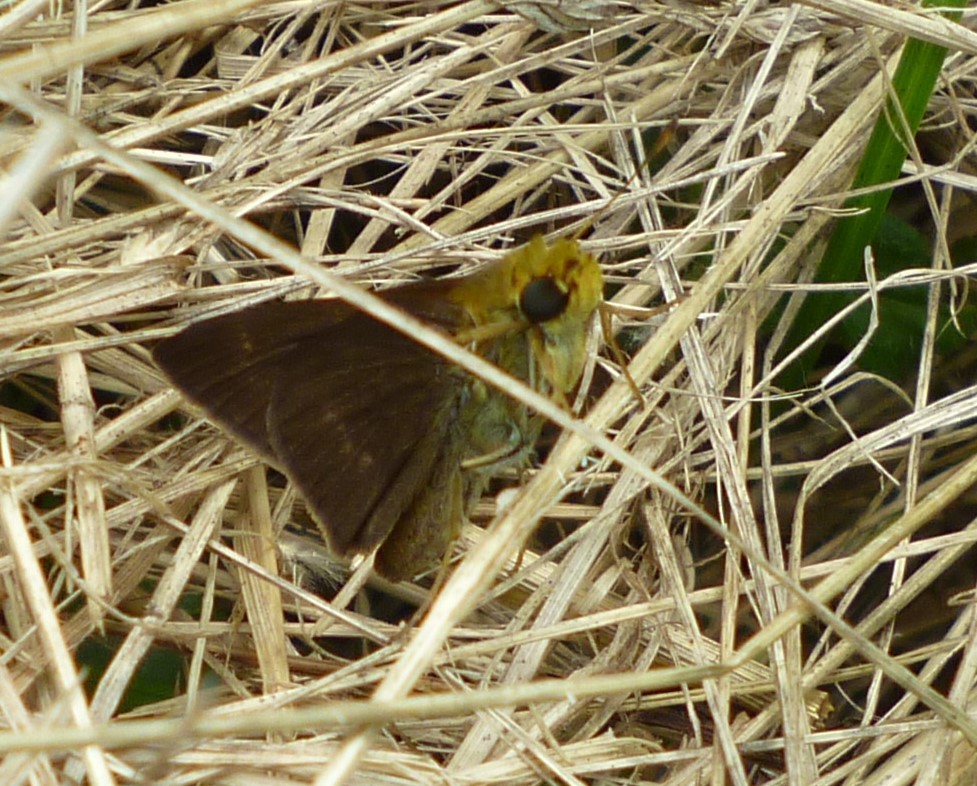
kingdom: Animalia
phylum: Arthropoda
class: Insecta
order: Lepidoptera
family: Hesperiidae
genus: Euphyes
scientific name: Euphyes vestris
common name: Dun skipper
